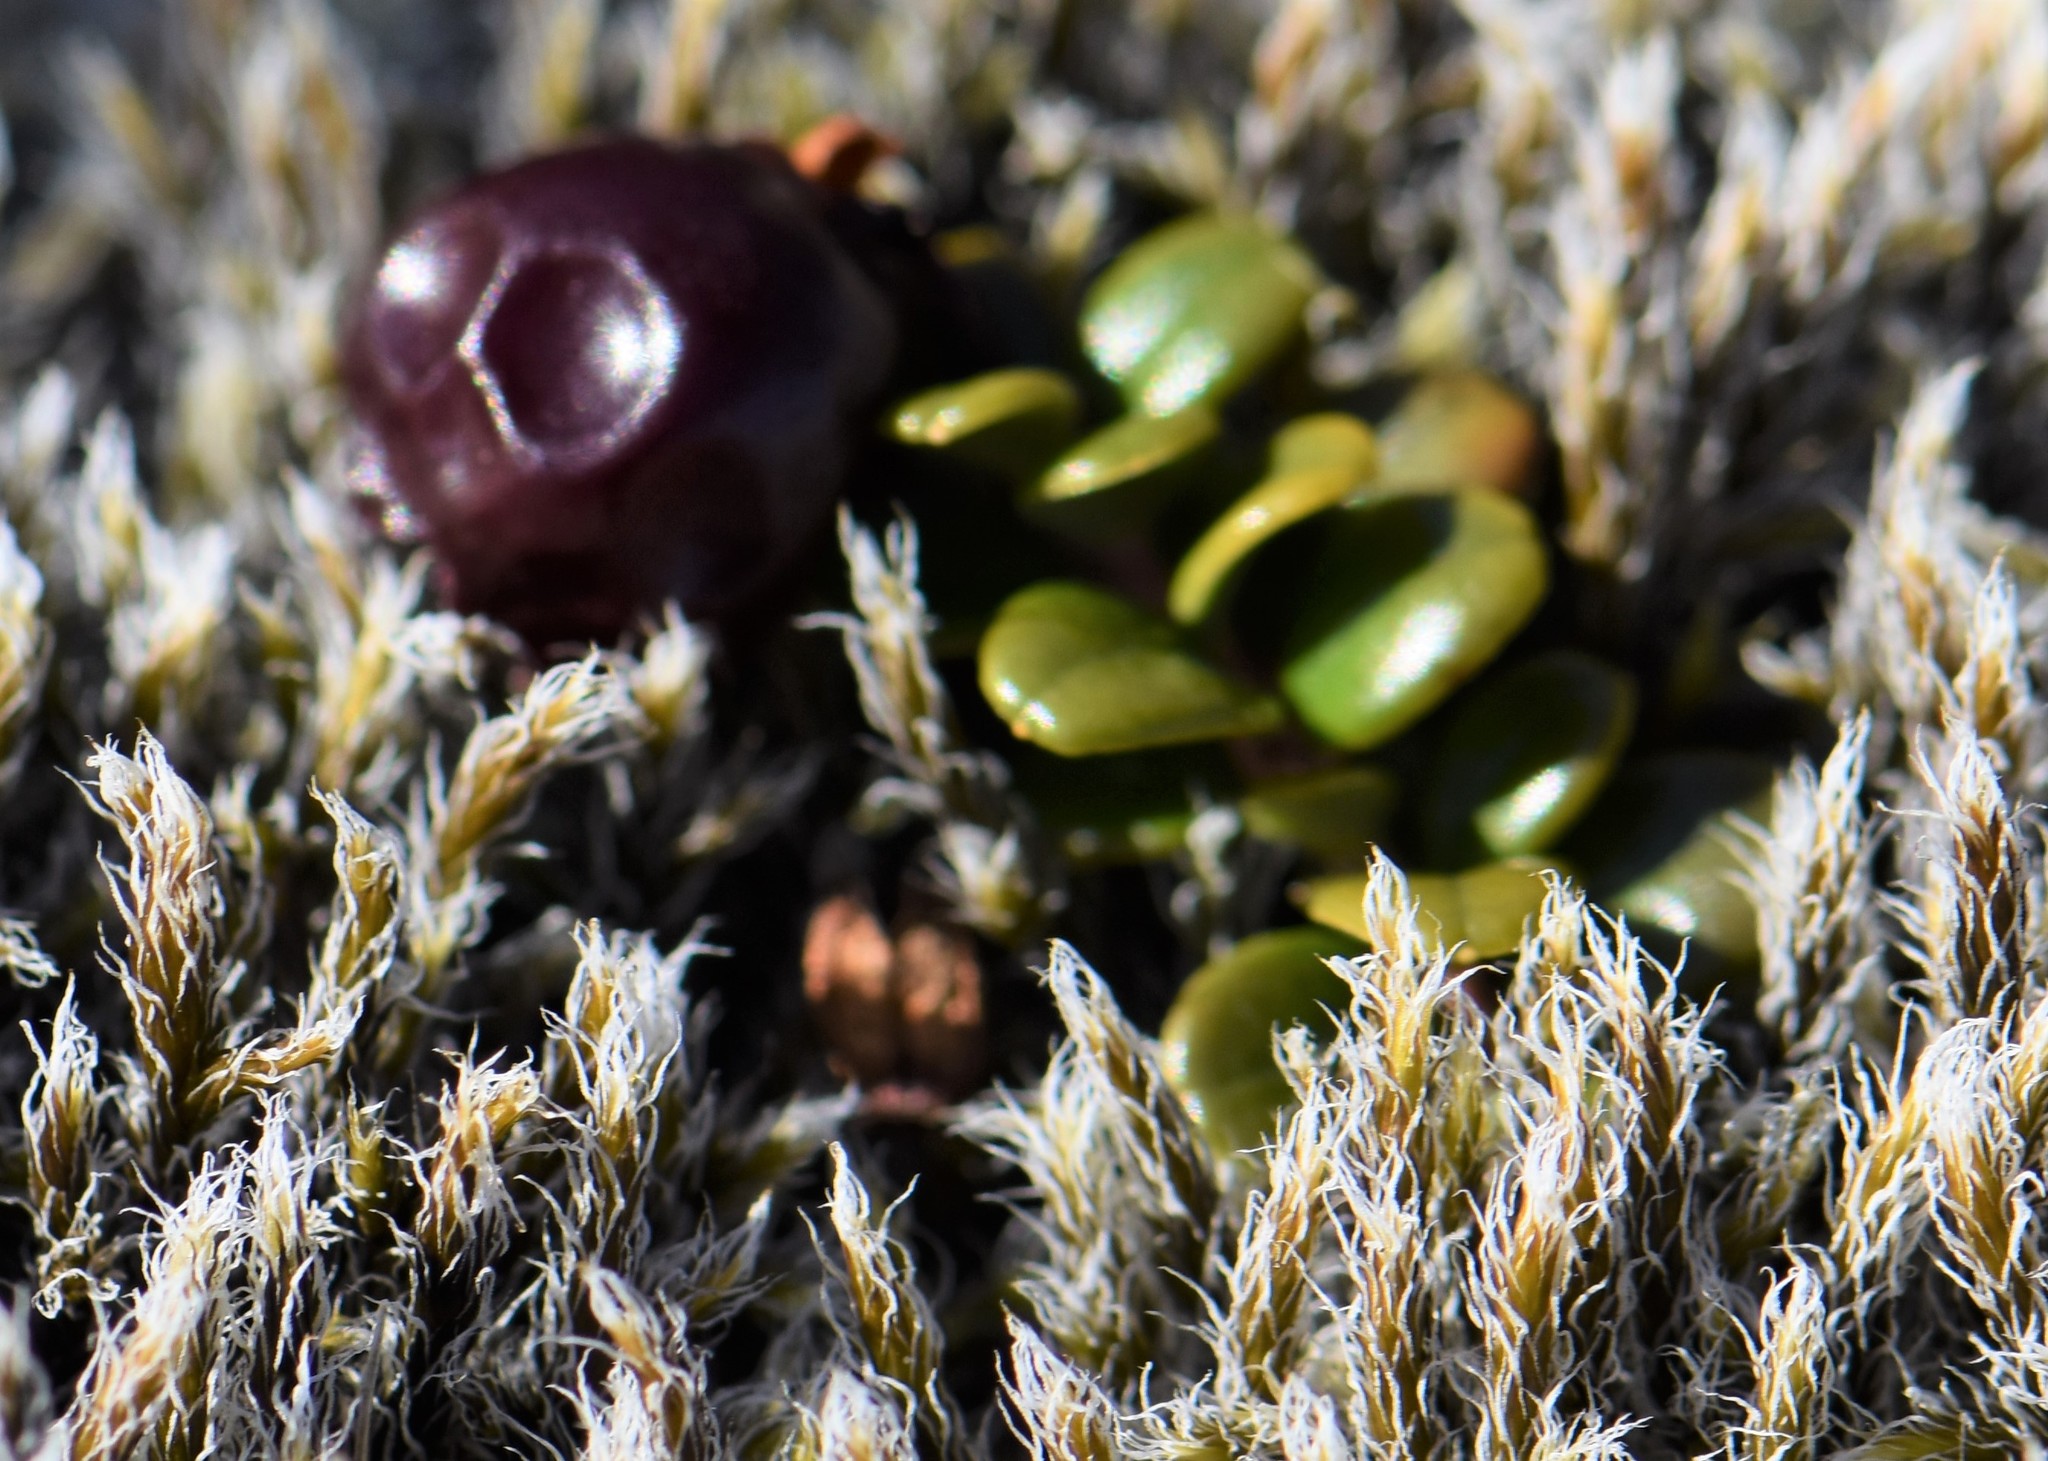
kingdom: Plantae
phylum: Tracheophyta
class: Magnoliopsida
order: Ericales
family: Ericaceae
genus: Vaccinium
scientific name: Vaccinium vitis-idaea
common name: Cowberry
